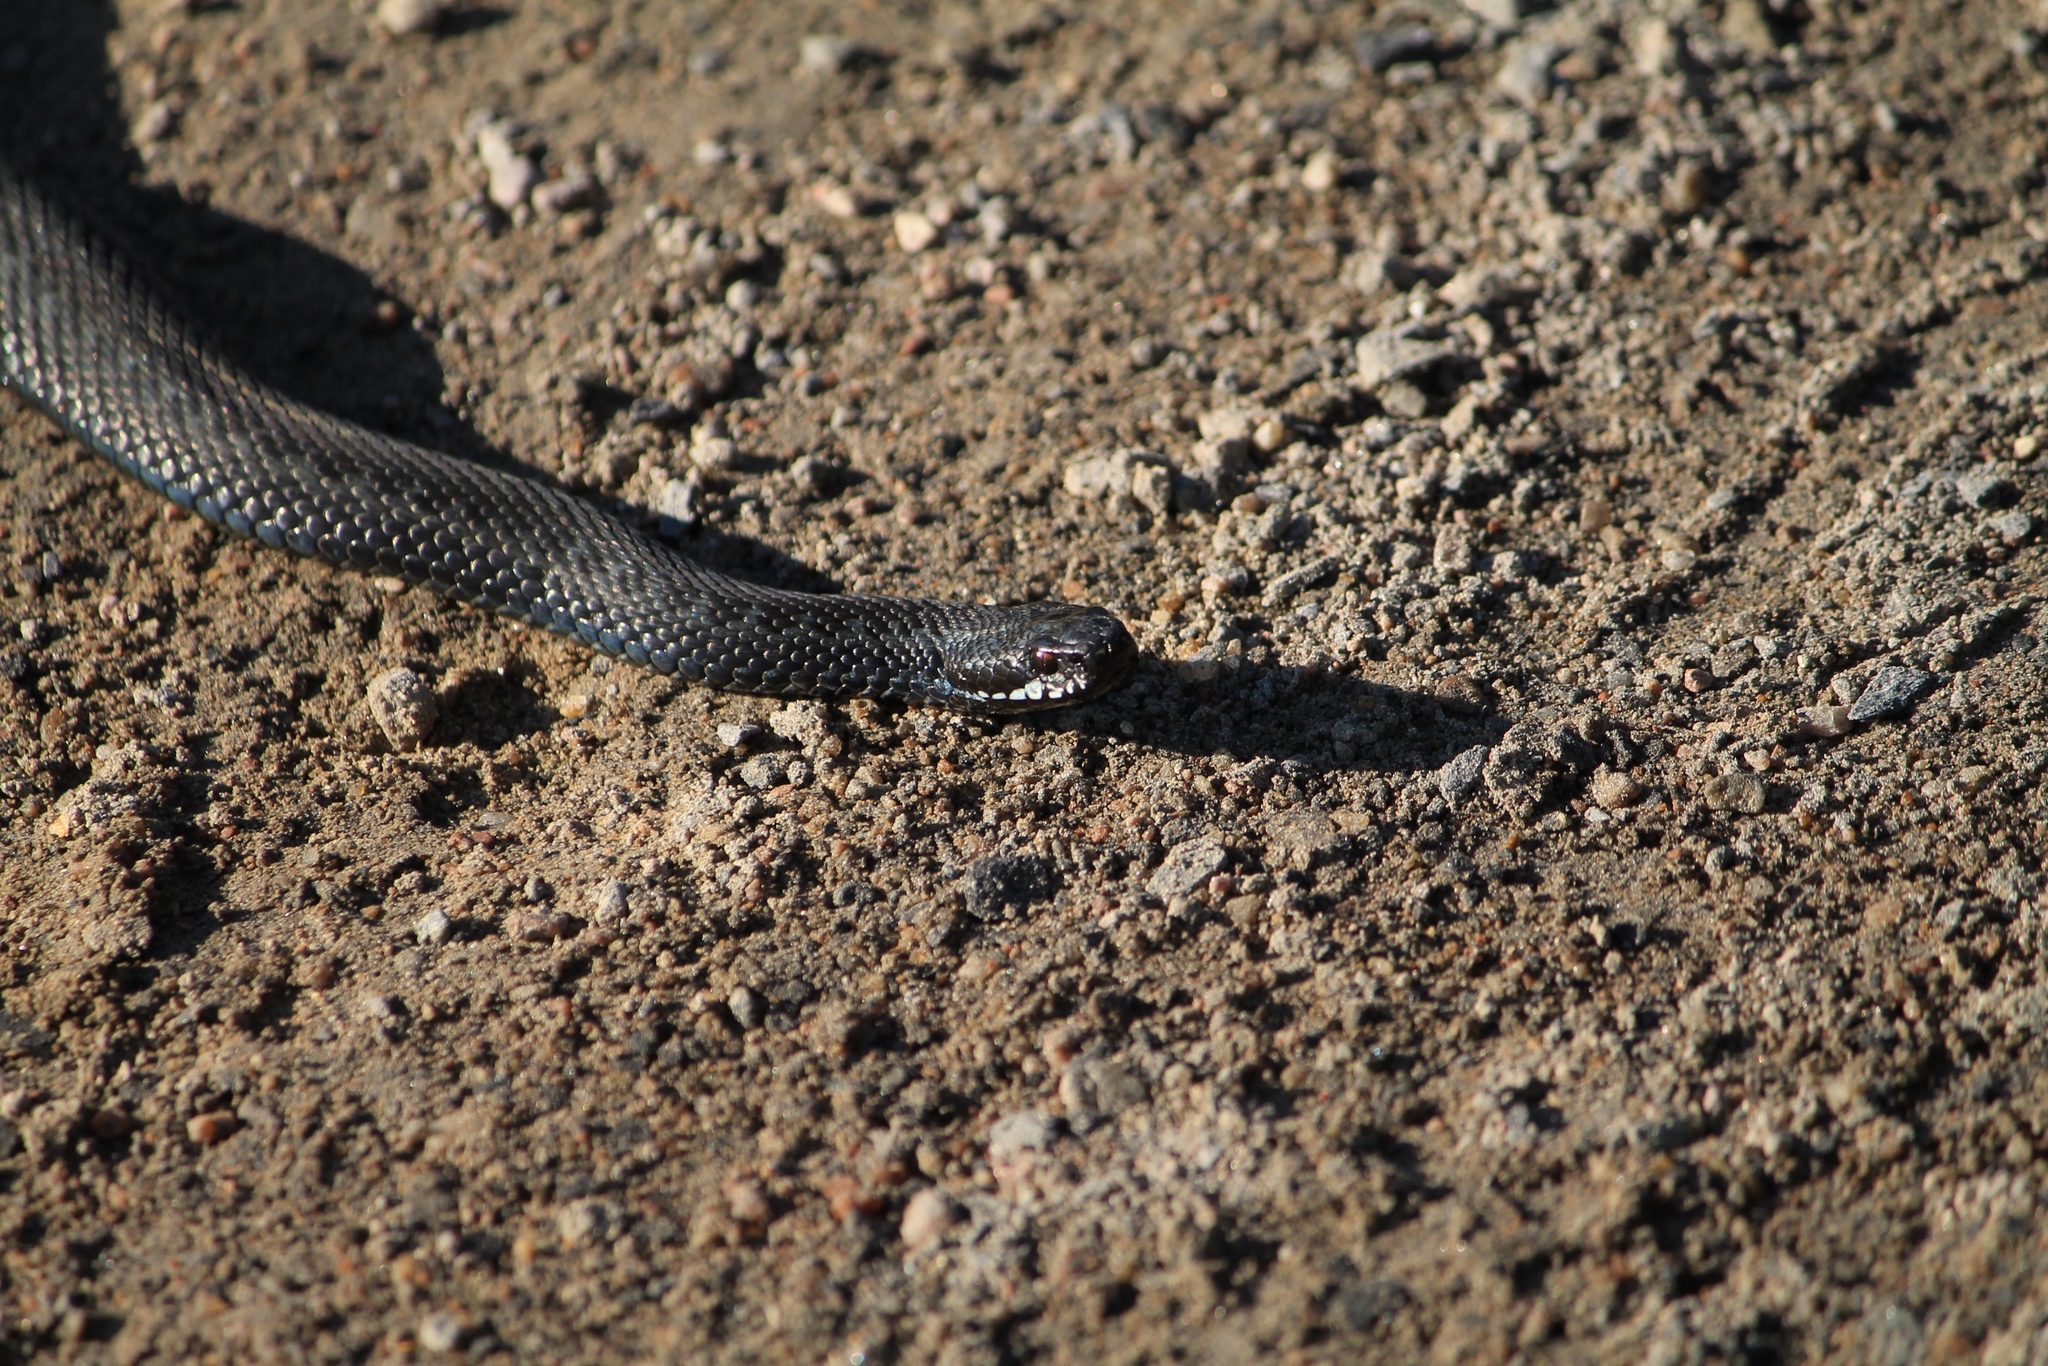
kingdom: Animalia
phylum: Chordata
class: Squamata
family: Viperidae
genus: Vipera
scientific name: Vipera berus
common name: Adder
